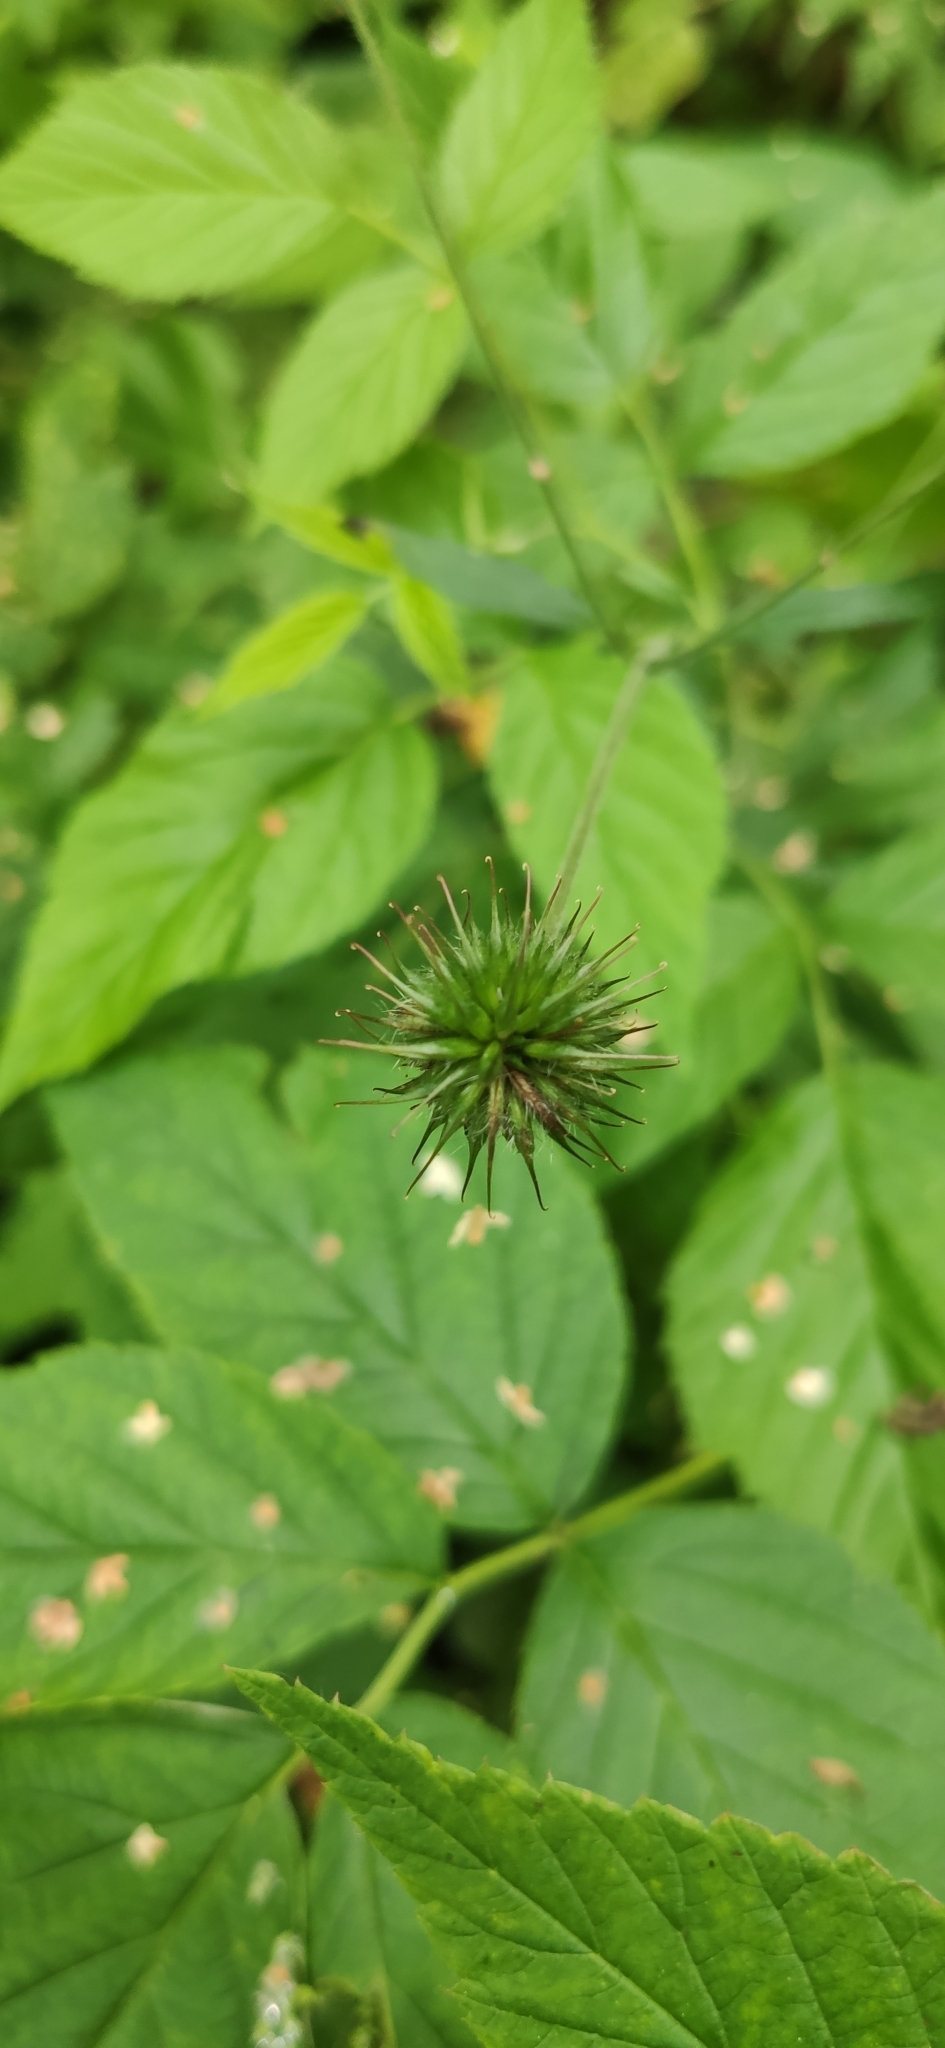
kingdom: Plantae
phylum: Tracheophyta
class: Magnoliopsida
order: Rosales
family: Rosaceae
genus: Geum
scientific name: Geum urbanum
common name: Wood avens
